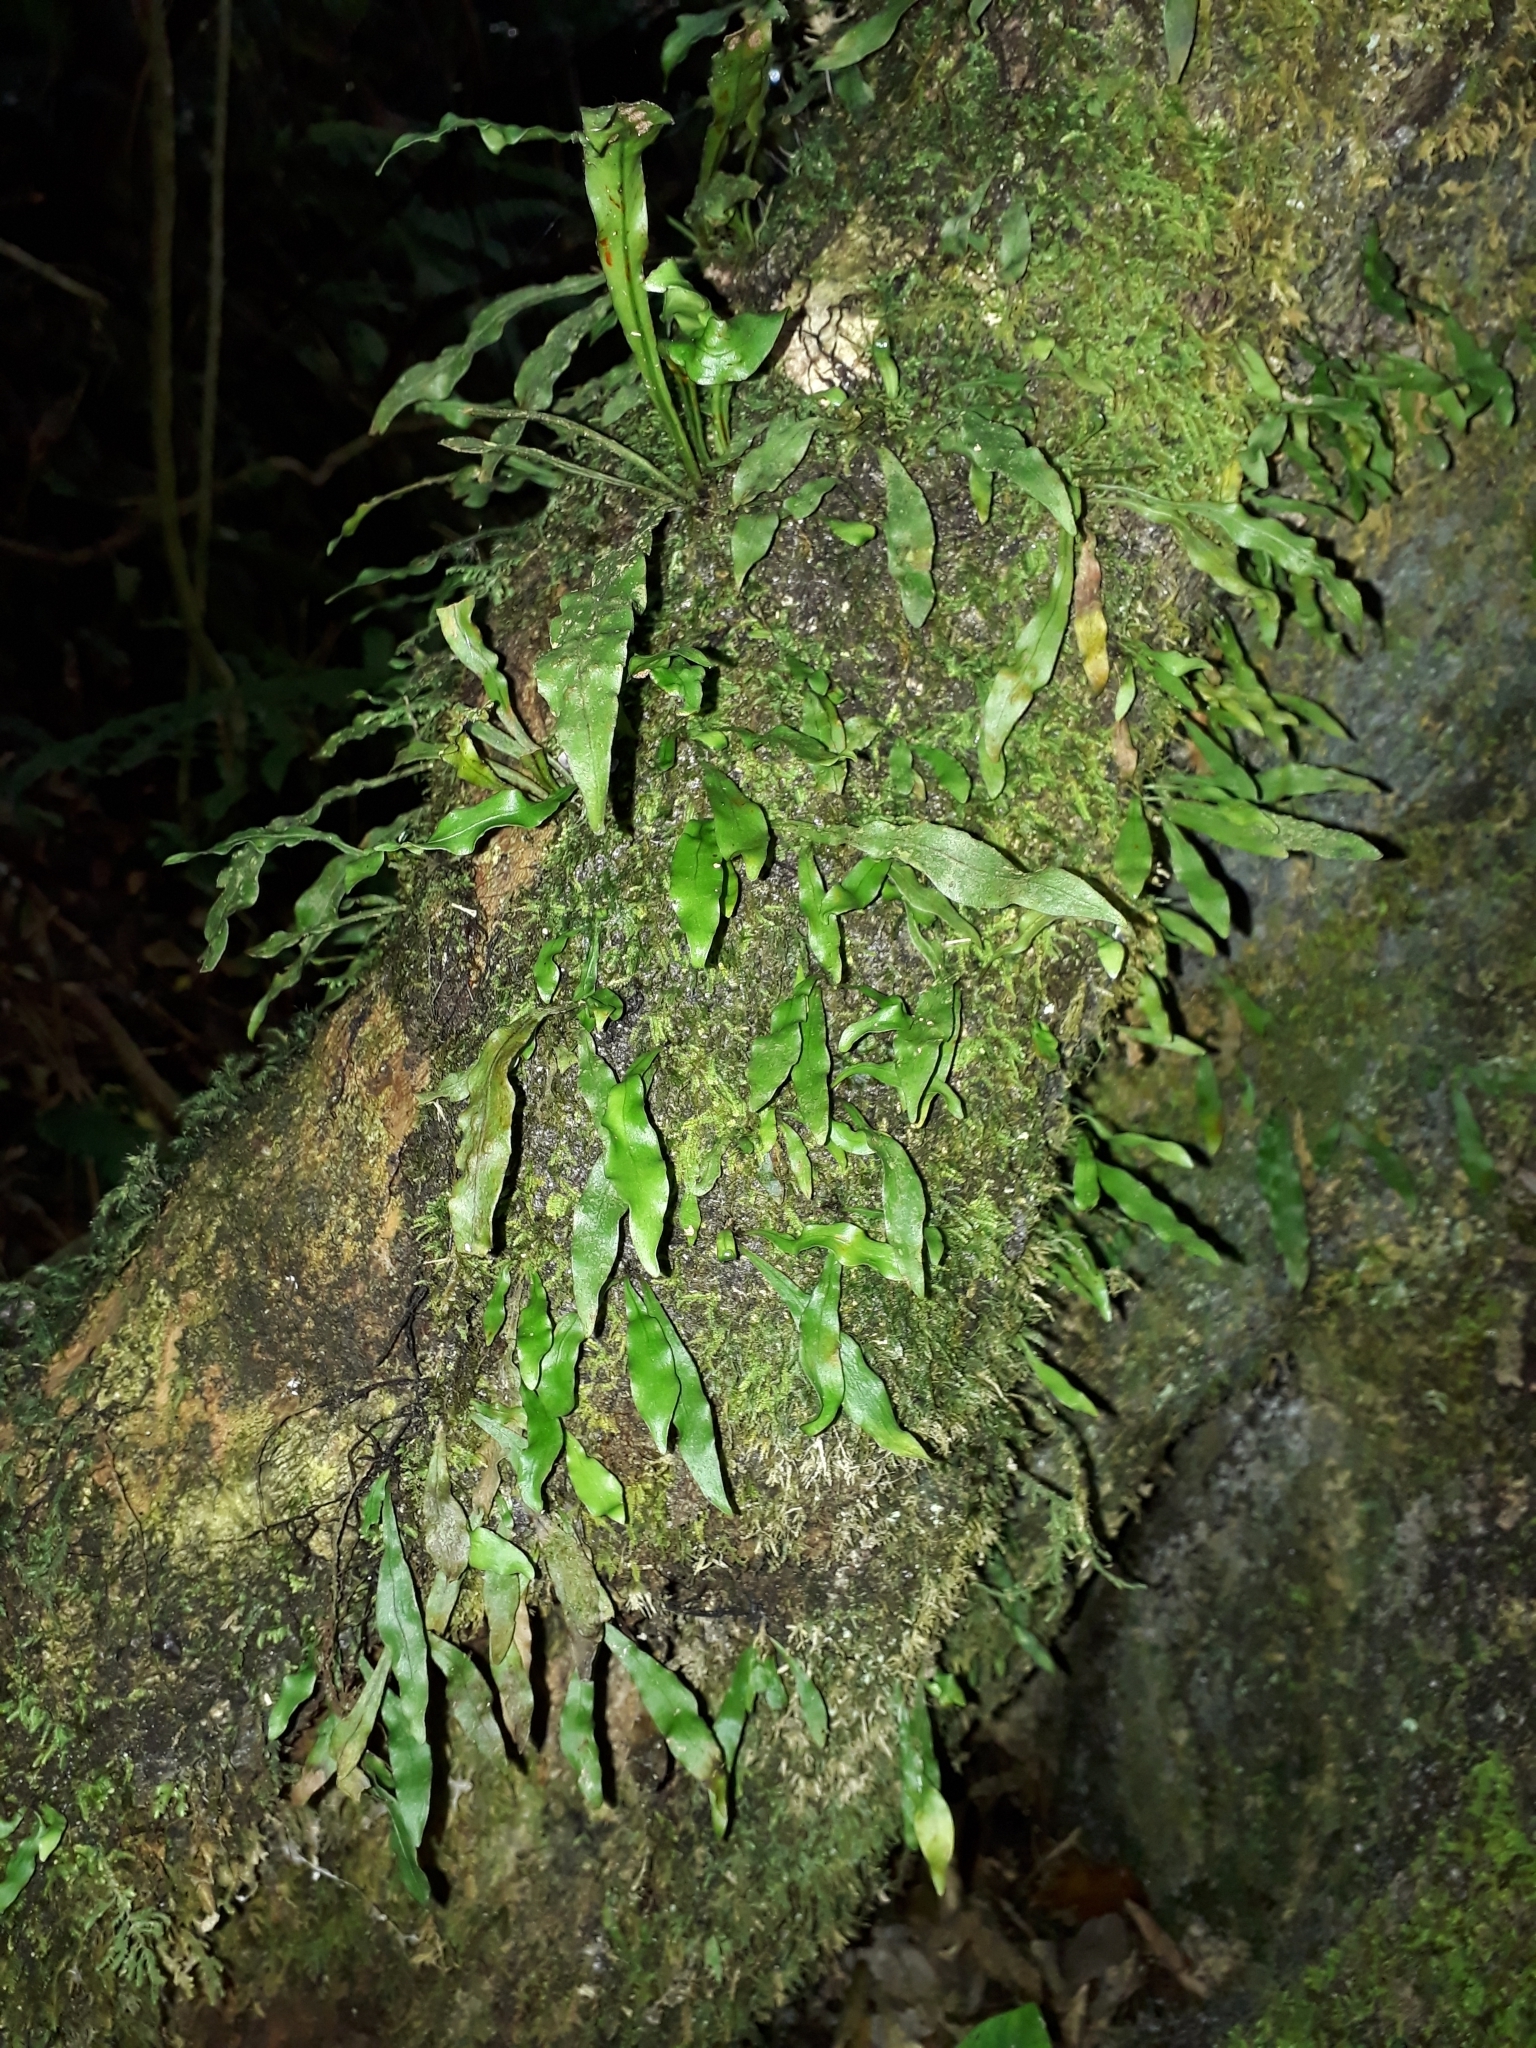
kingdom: Plantae
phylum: Tracheophyta
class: Polypodiopsida
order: Polypodiales
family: Polypodiaceae
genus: Loxogramme
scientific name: Loxogramme dictyopteris
